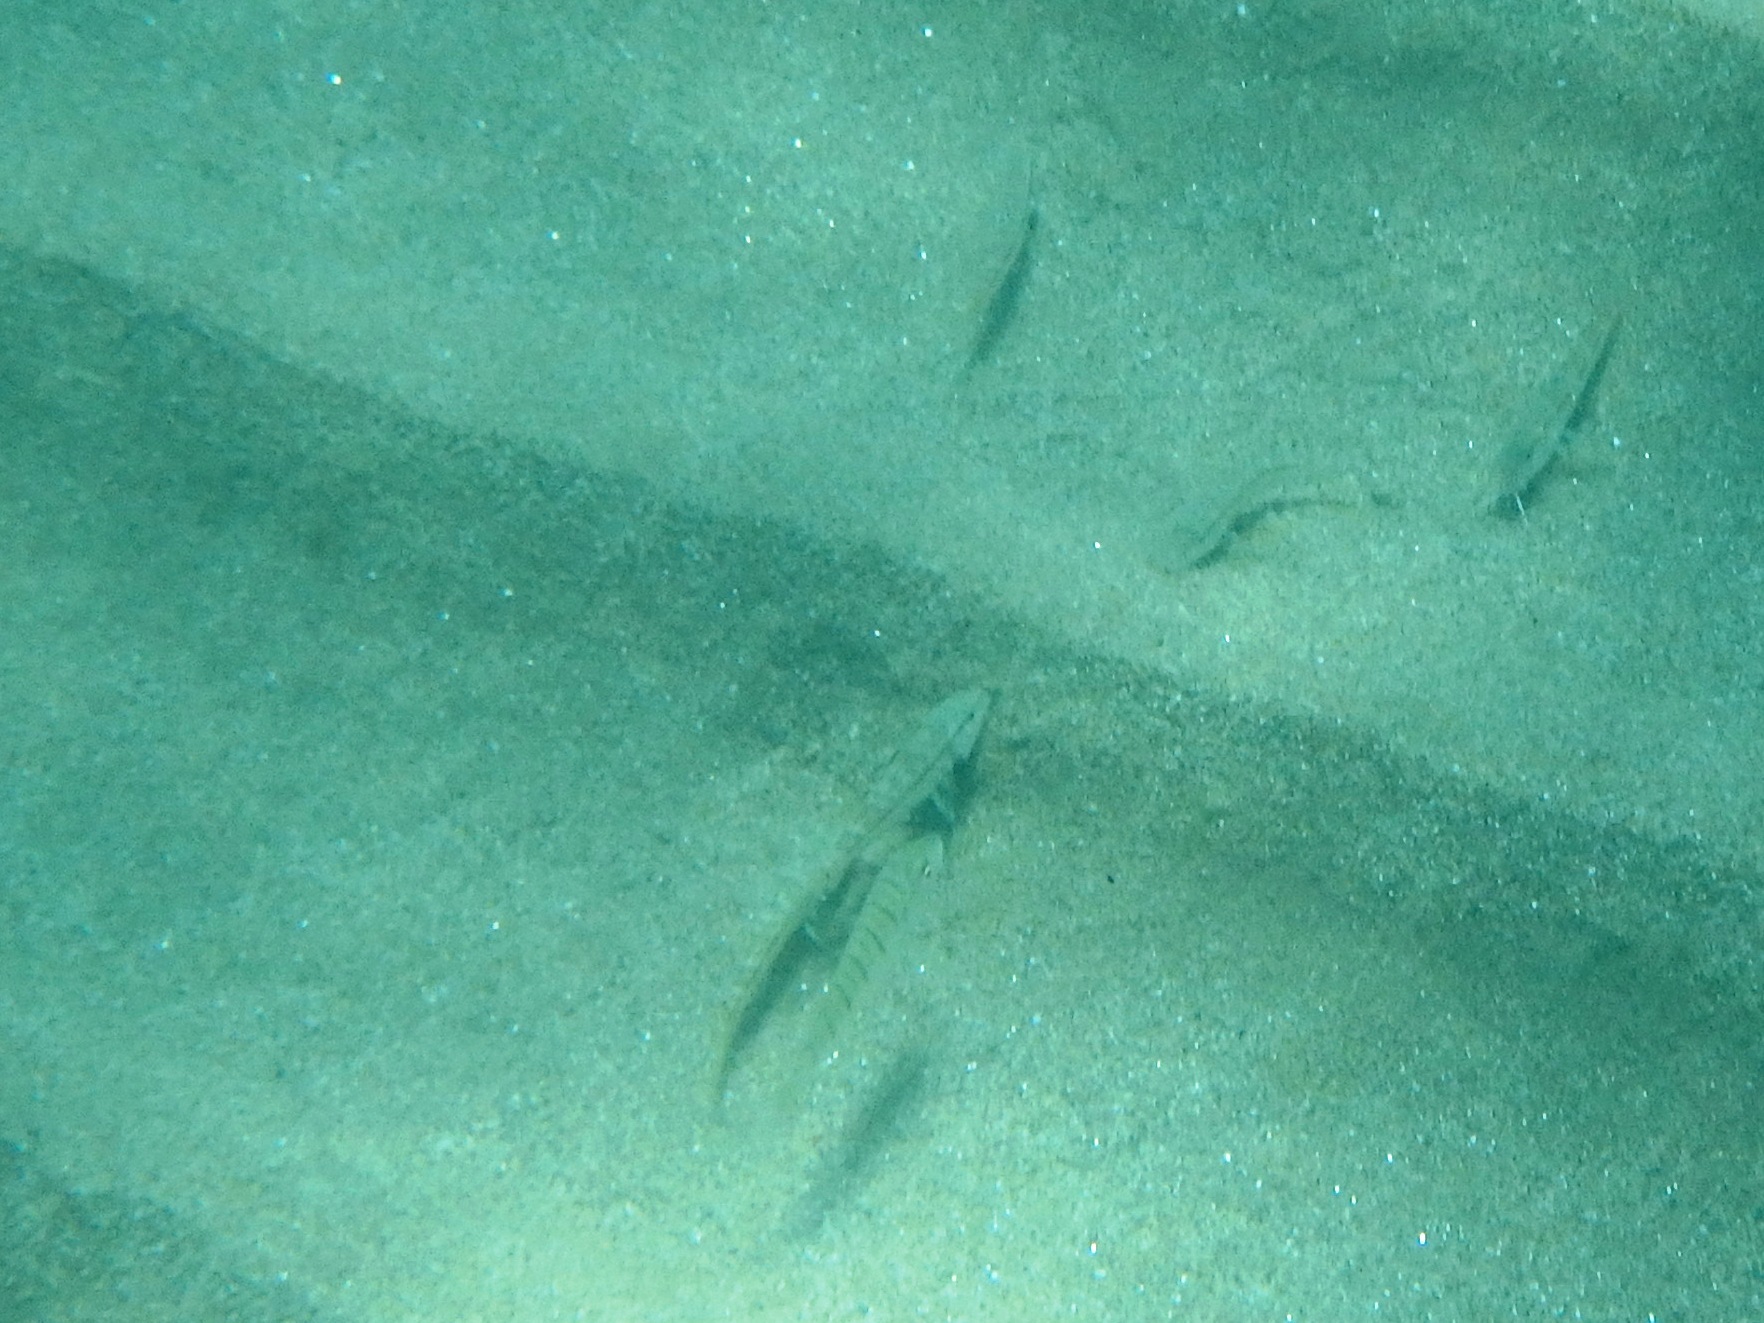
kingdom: Animalia
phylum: Chordata
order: Perciformes
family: Sparidae
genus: Lithognathus
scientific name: Lithognathus mormyrus
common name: Sand steenbras
